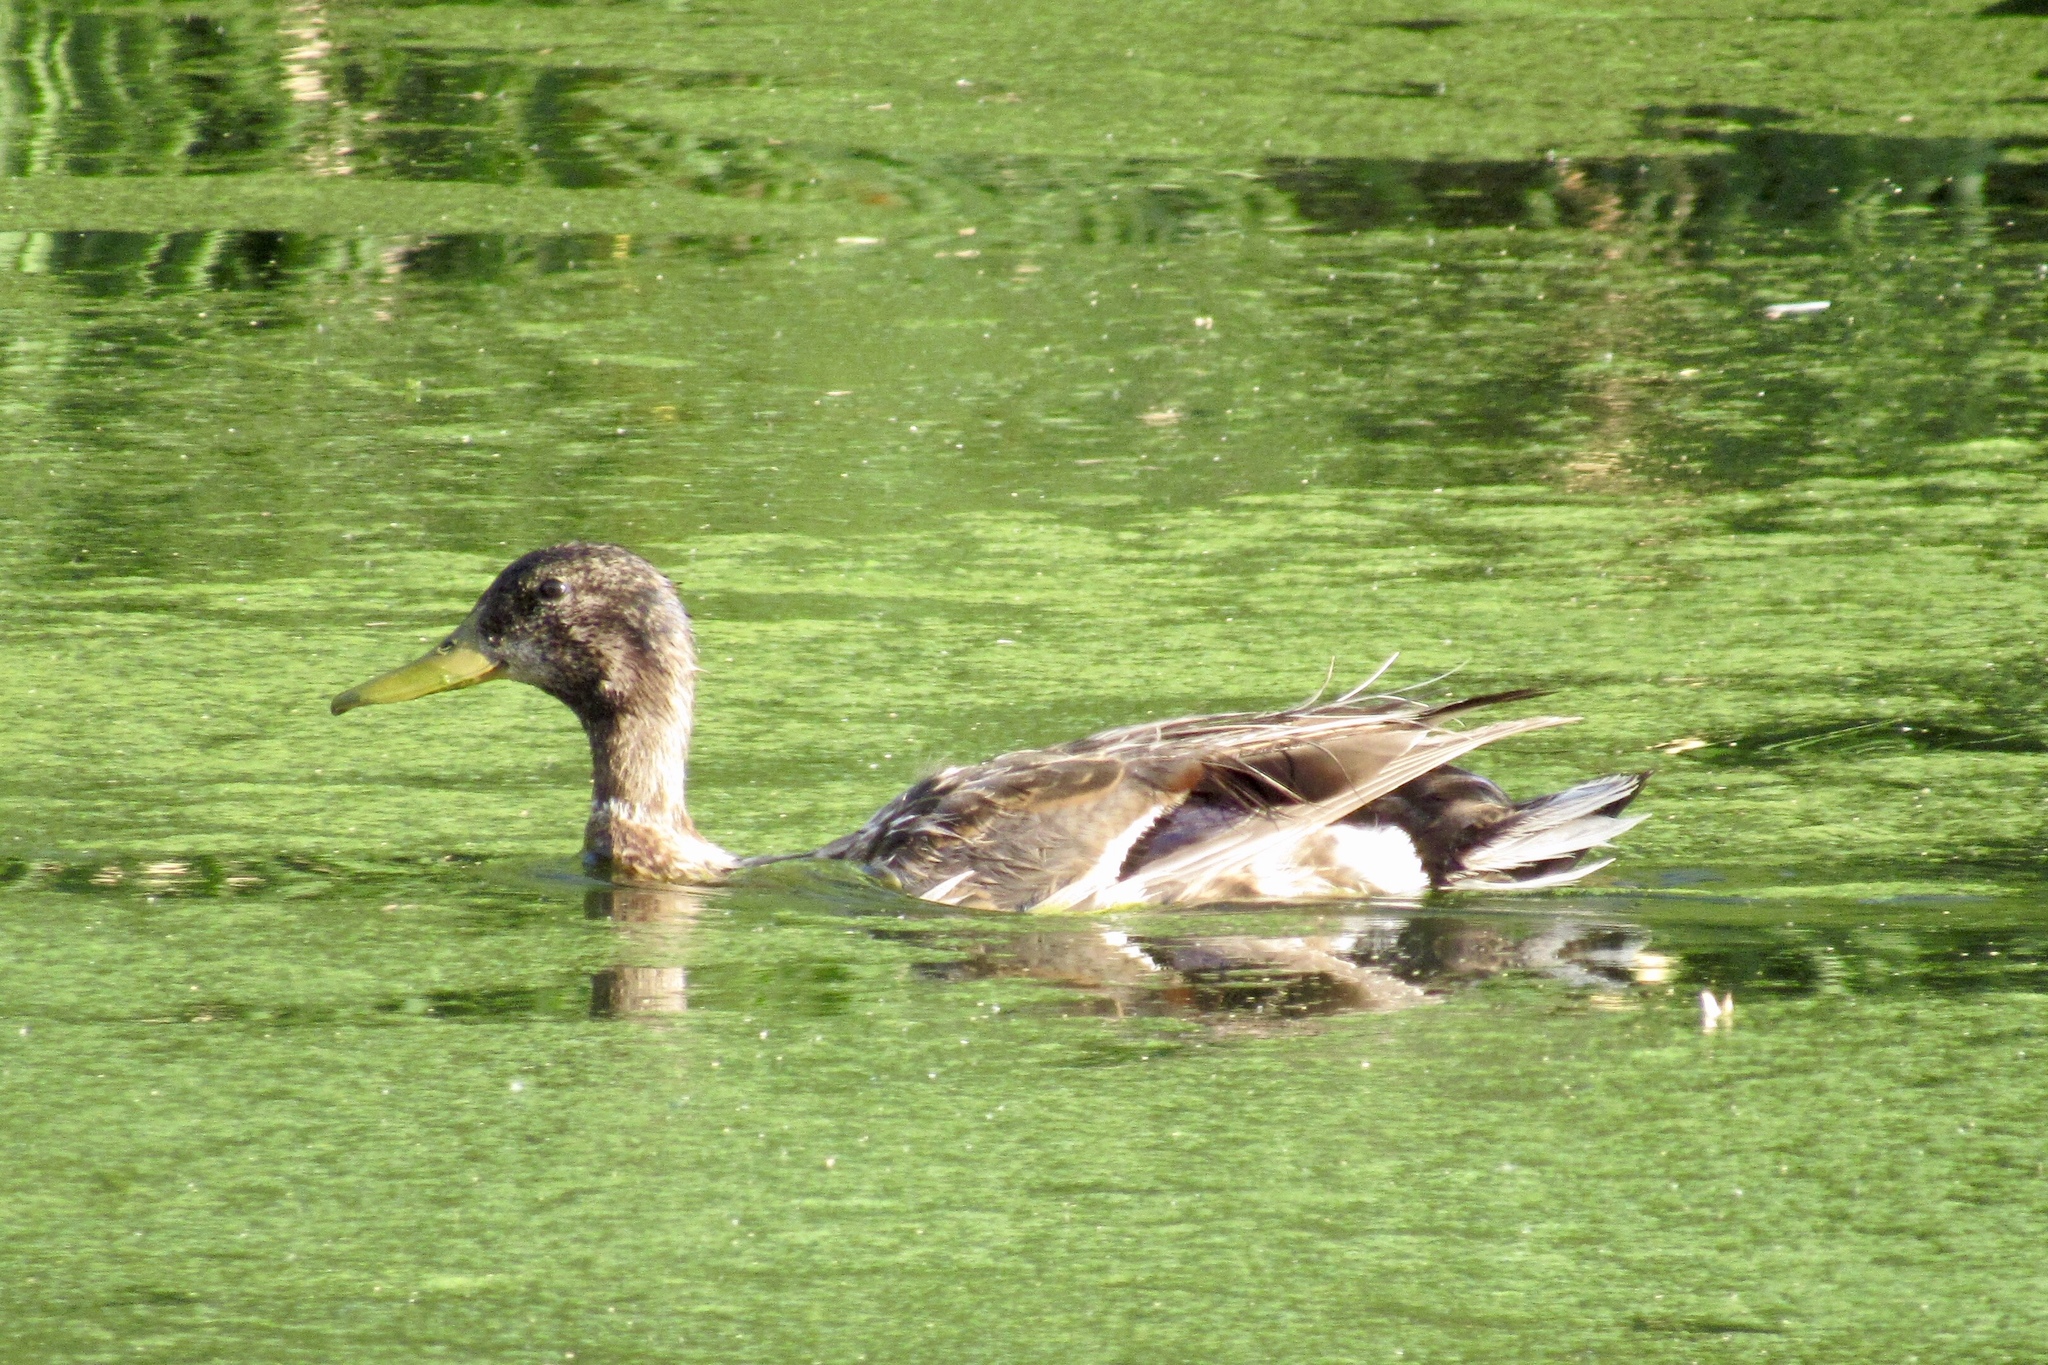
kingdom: Animalia
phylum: Chordata
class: Aves
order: Anseriformes
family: Anatidae
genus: Anas
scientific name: Anas platyrhynchos
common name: Mallard
